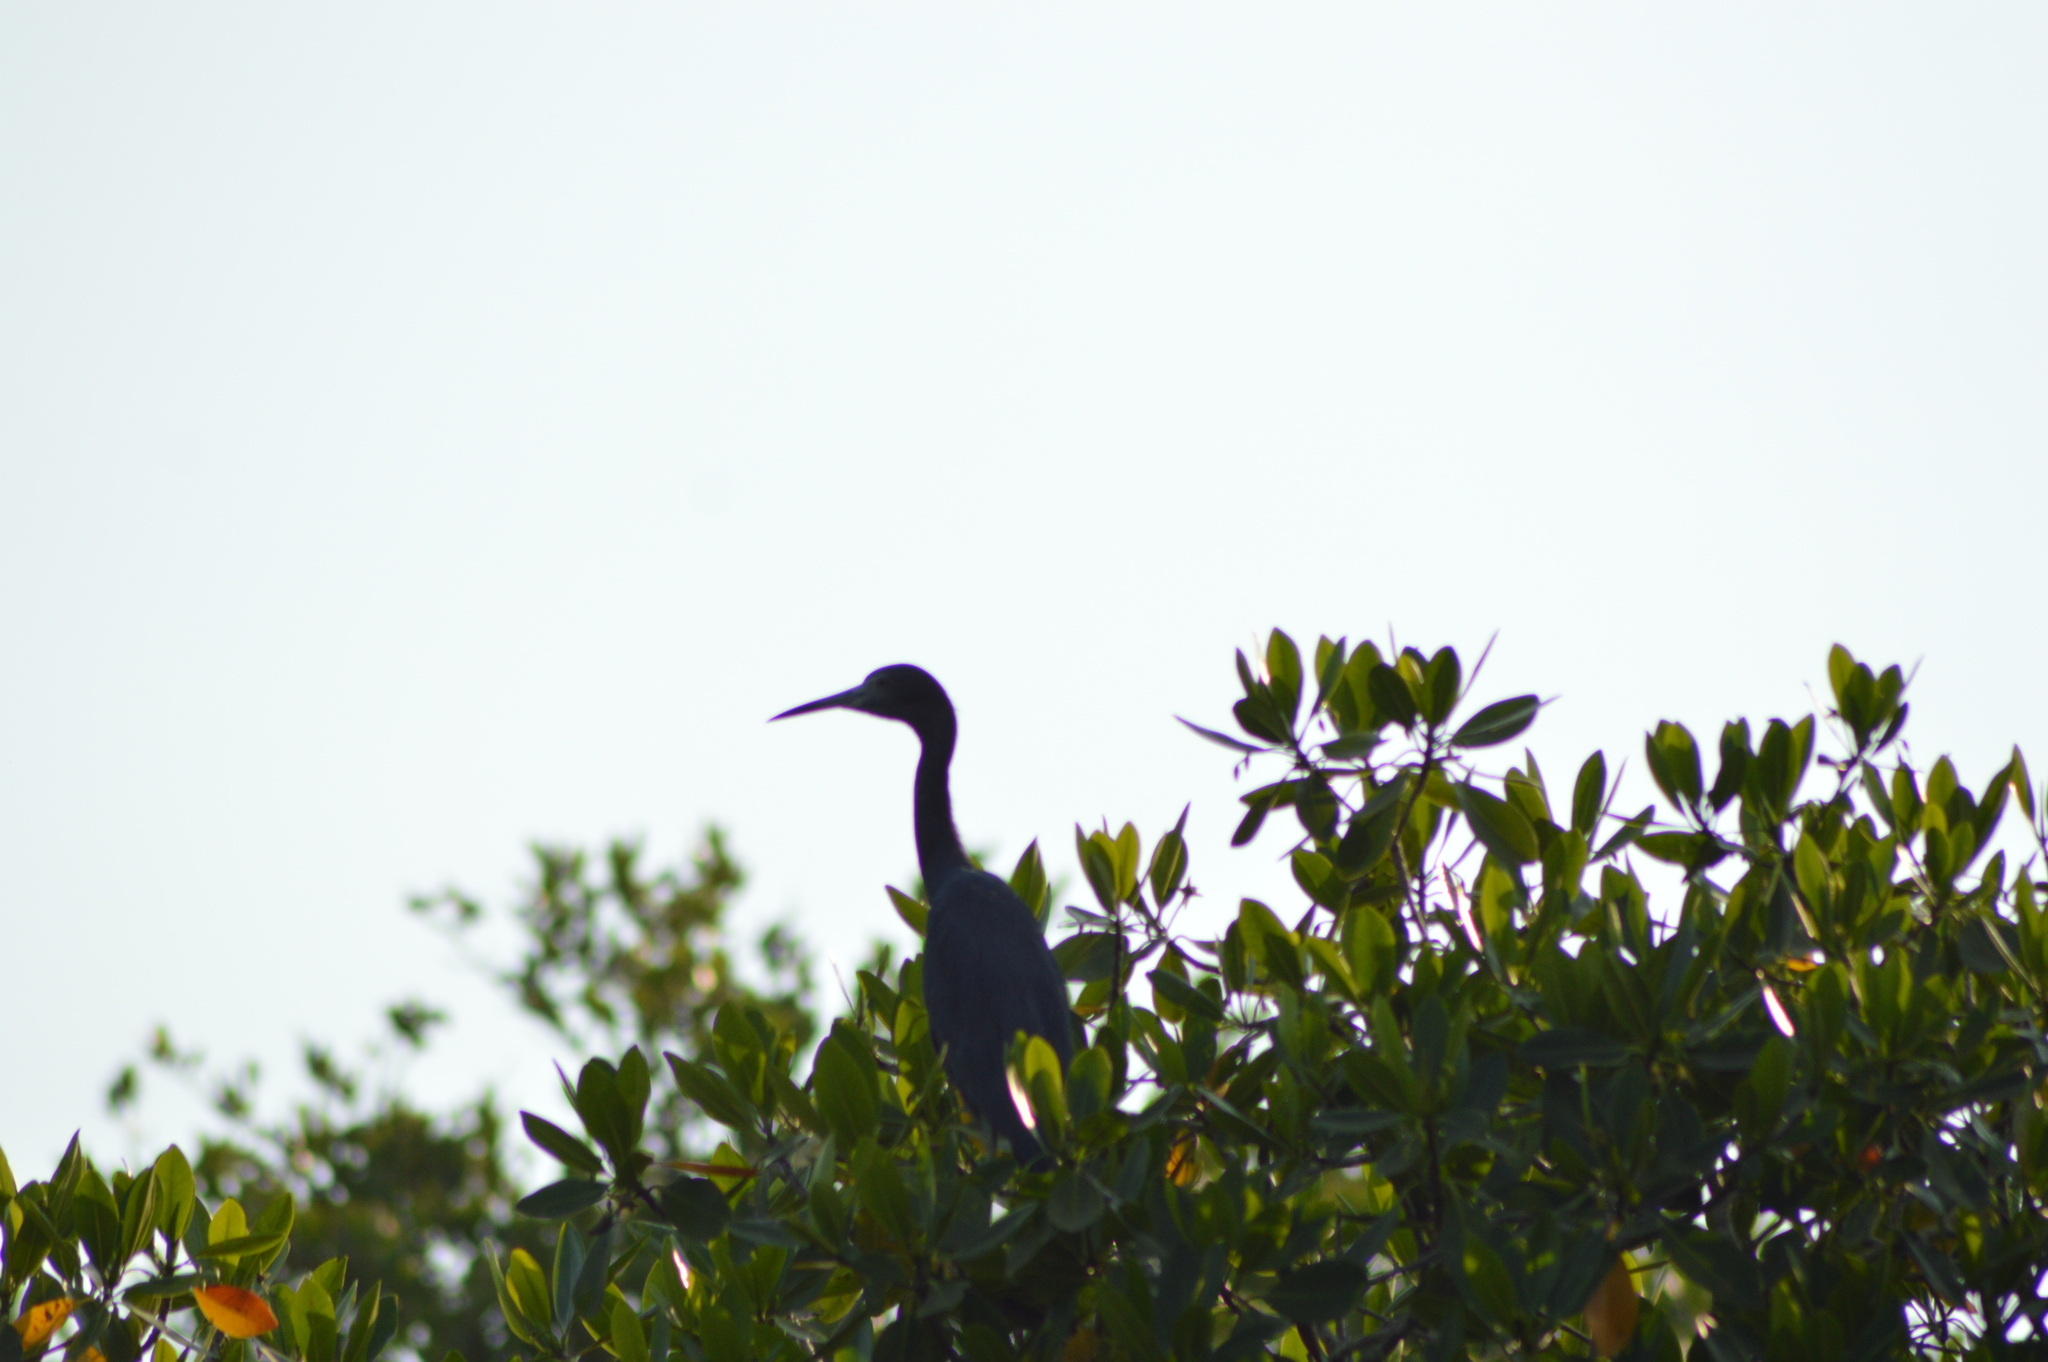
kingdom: Animalia
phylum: Chordata
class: Aves
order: Pelecaniformes
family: Ardeidae
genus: Egretta
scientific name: Egretta caerulea
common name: Little blue heron
